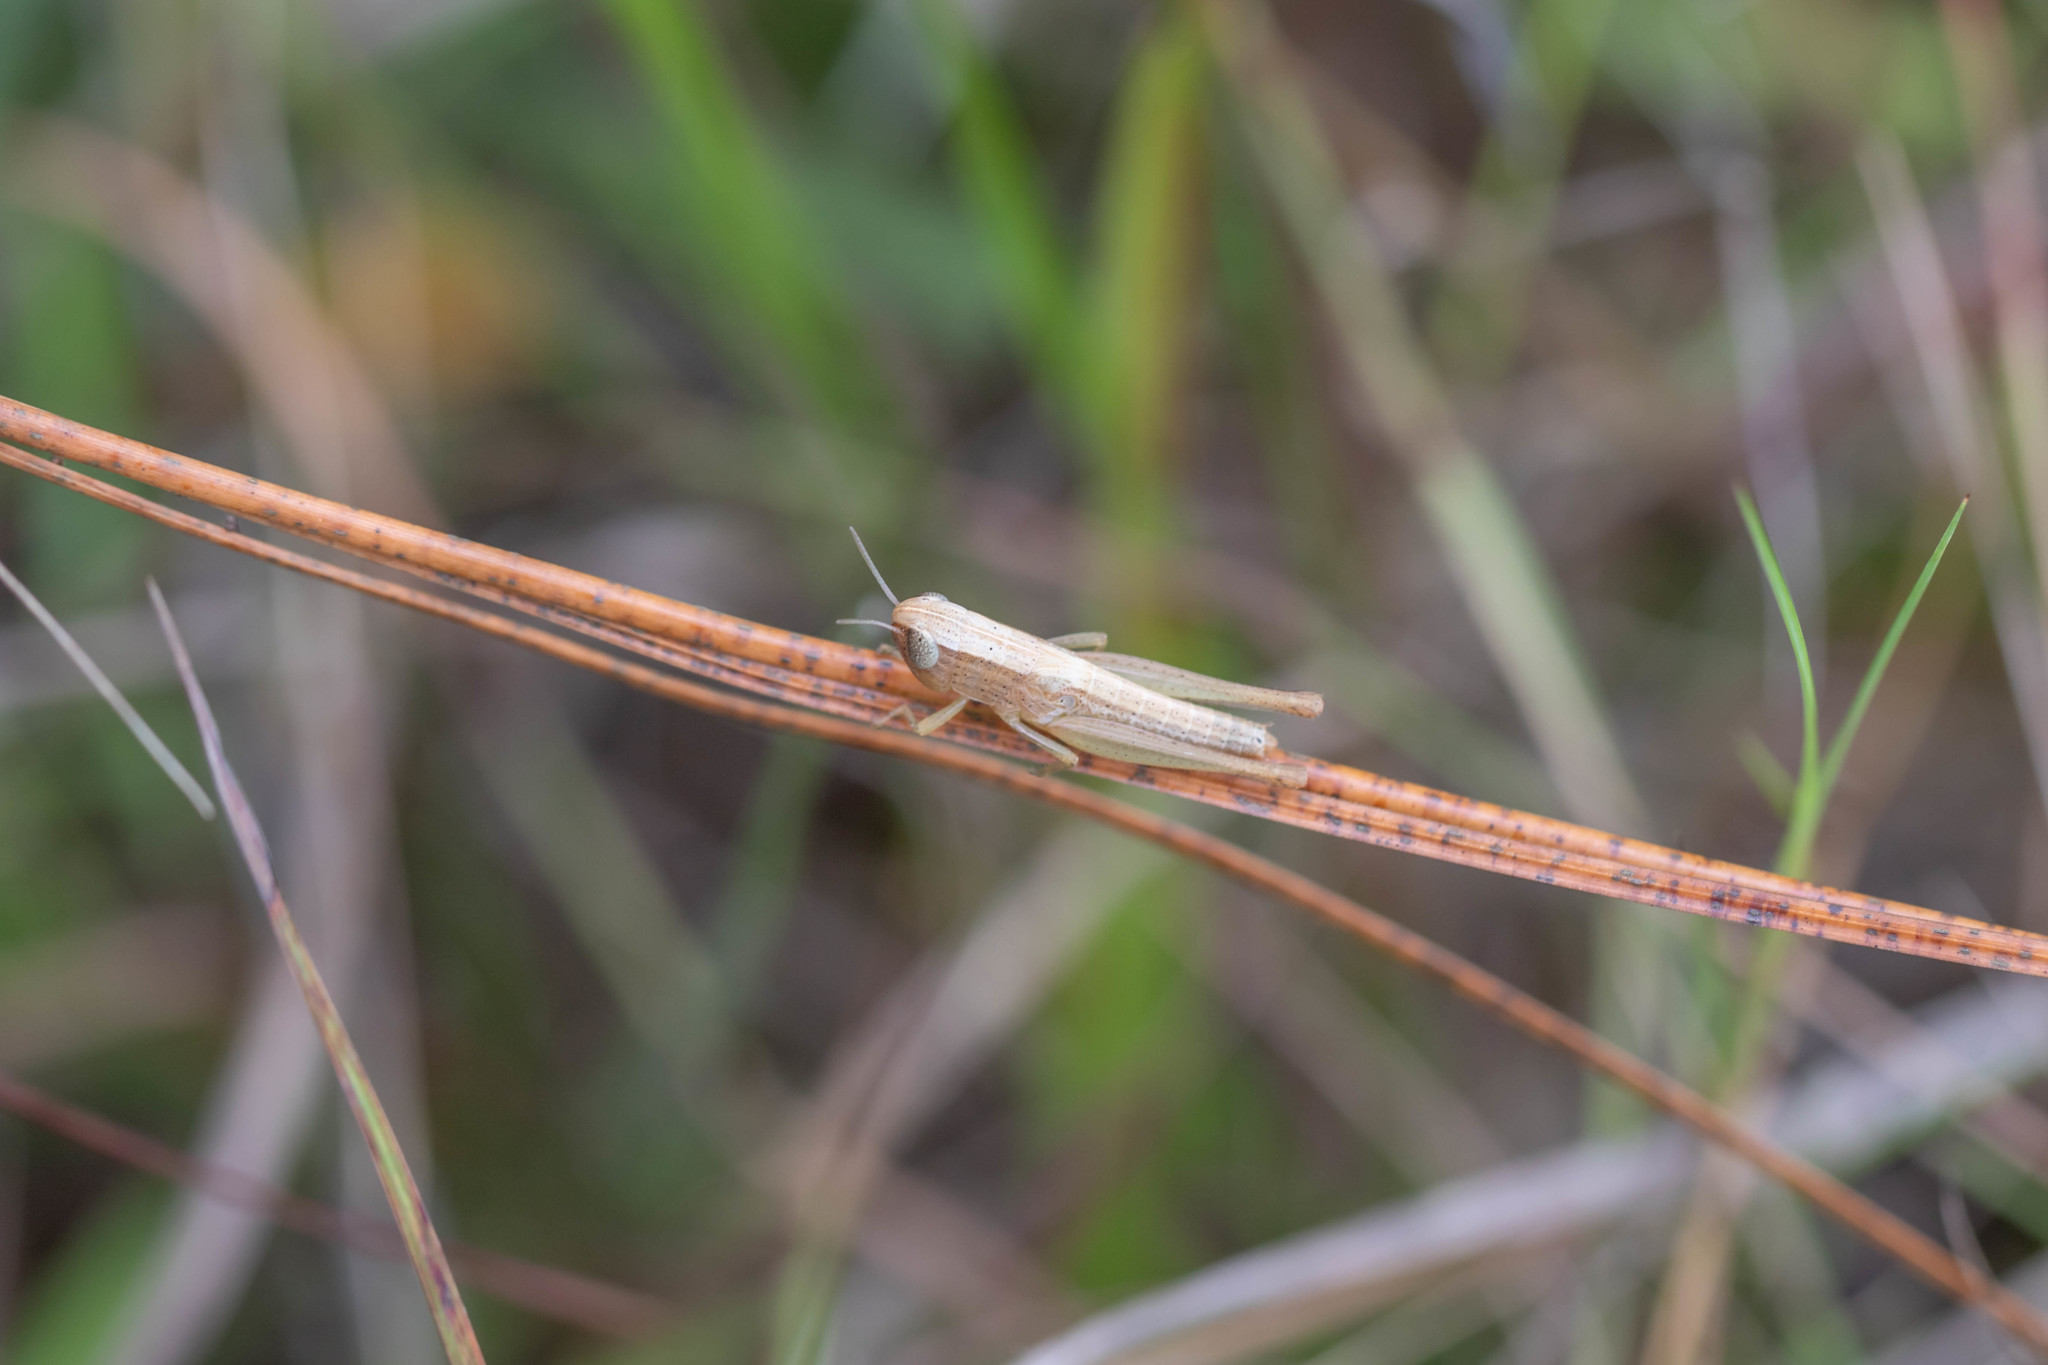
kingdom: Animalia
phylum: Arthropoda
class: Insecta
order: Orthoptera
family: Acrididae
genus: Amblytropidia
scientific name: Amblytropidia mysteca
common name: Brown winter grasshopper
